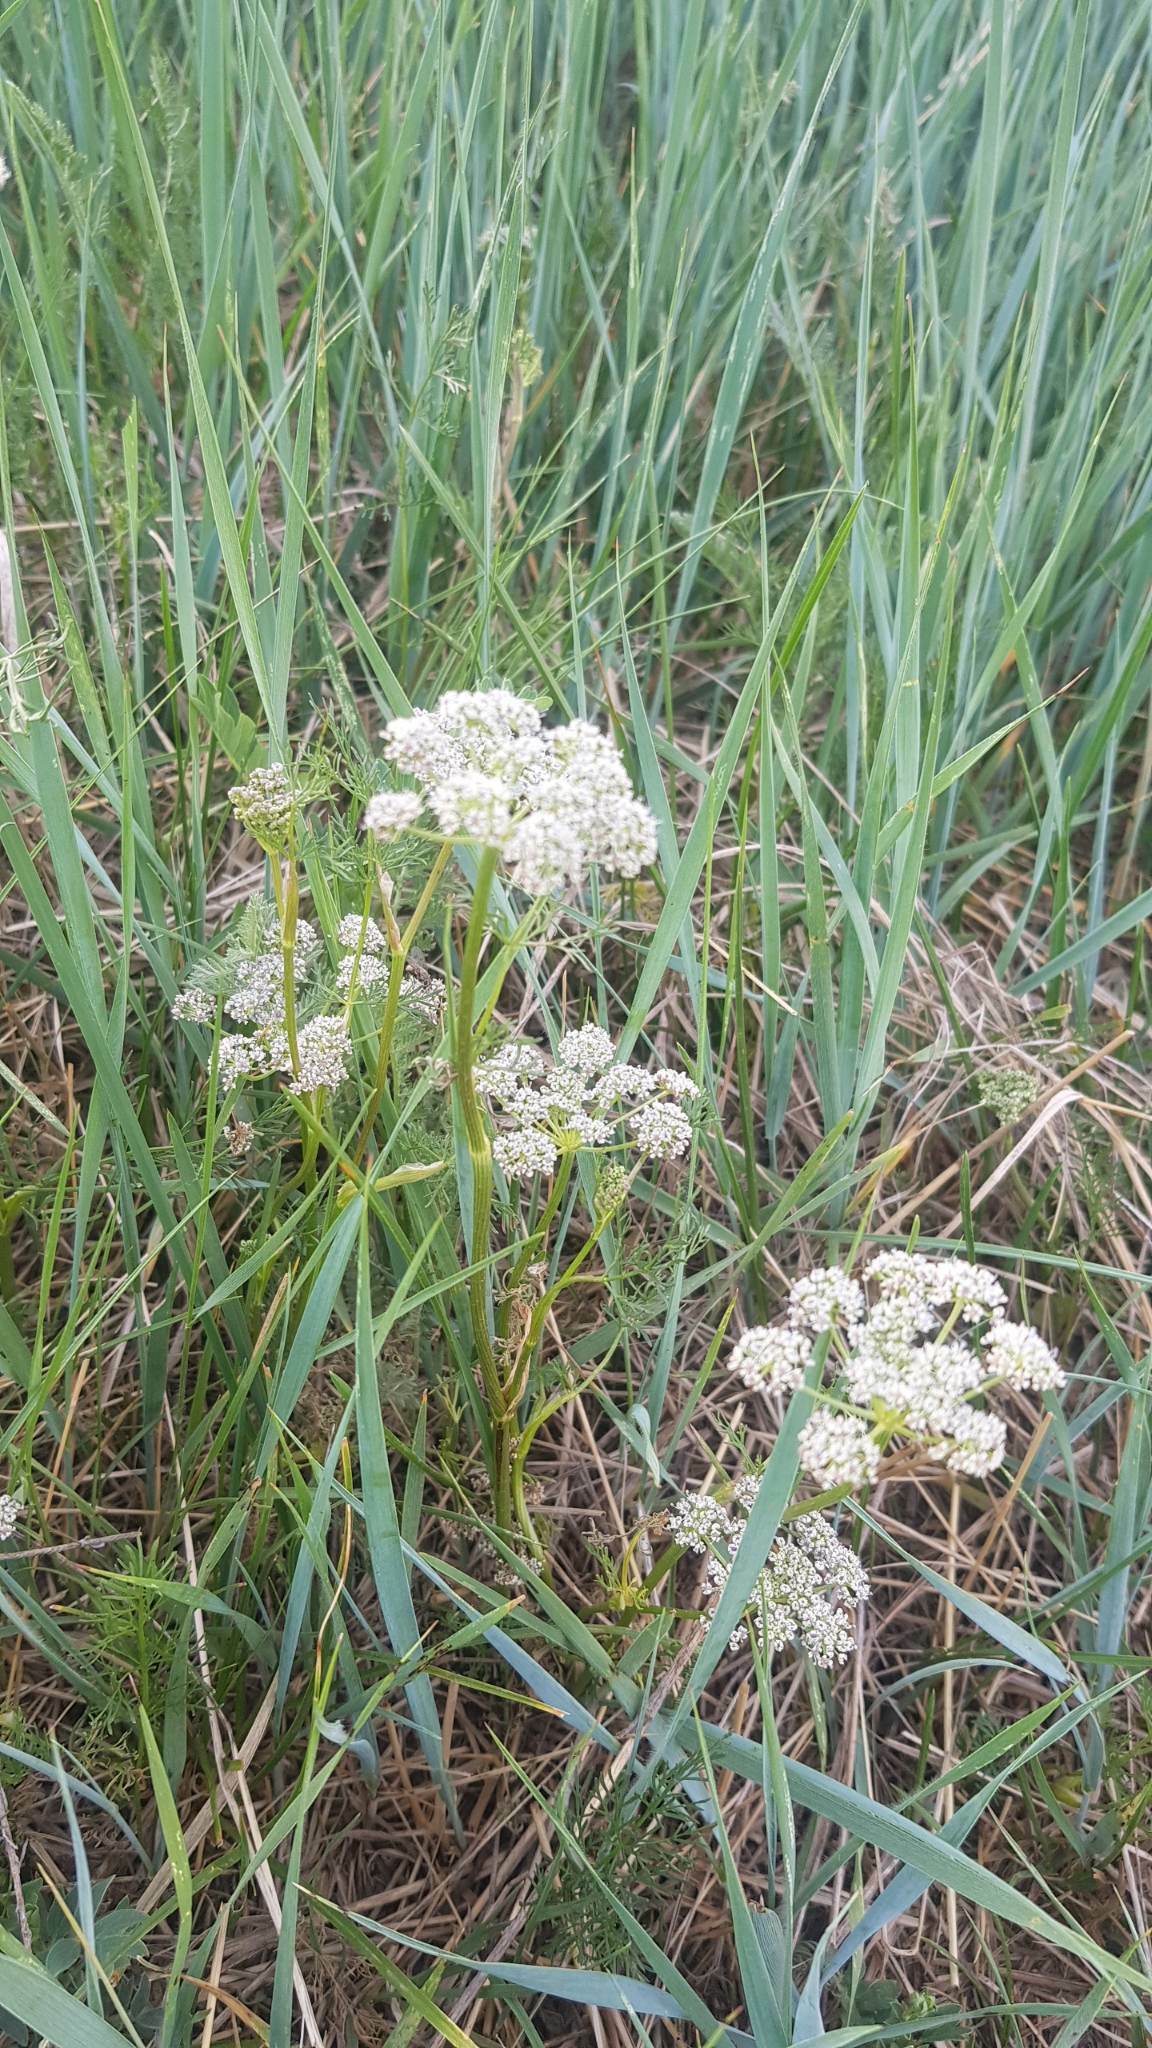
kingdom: Plantae
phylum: Tracheophyta
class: Magnoliopsida
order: Apiales
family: Apiaceae
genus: Peucedanum
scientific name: Peucedanum vaginatum
